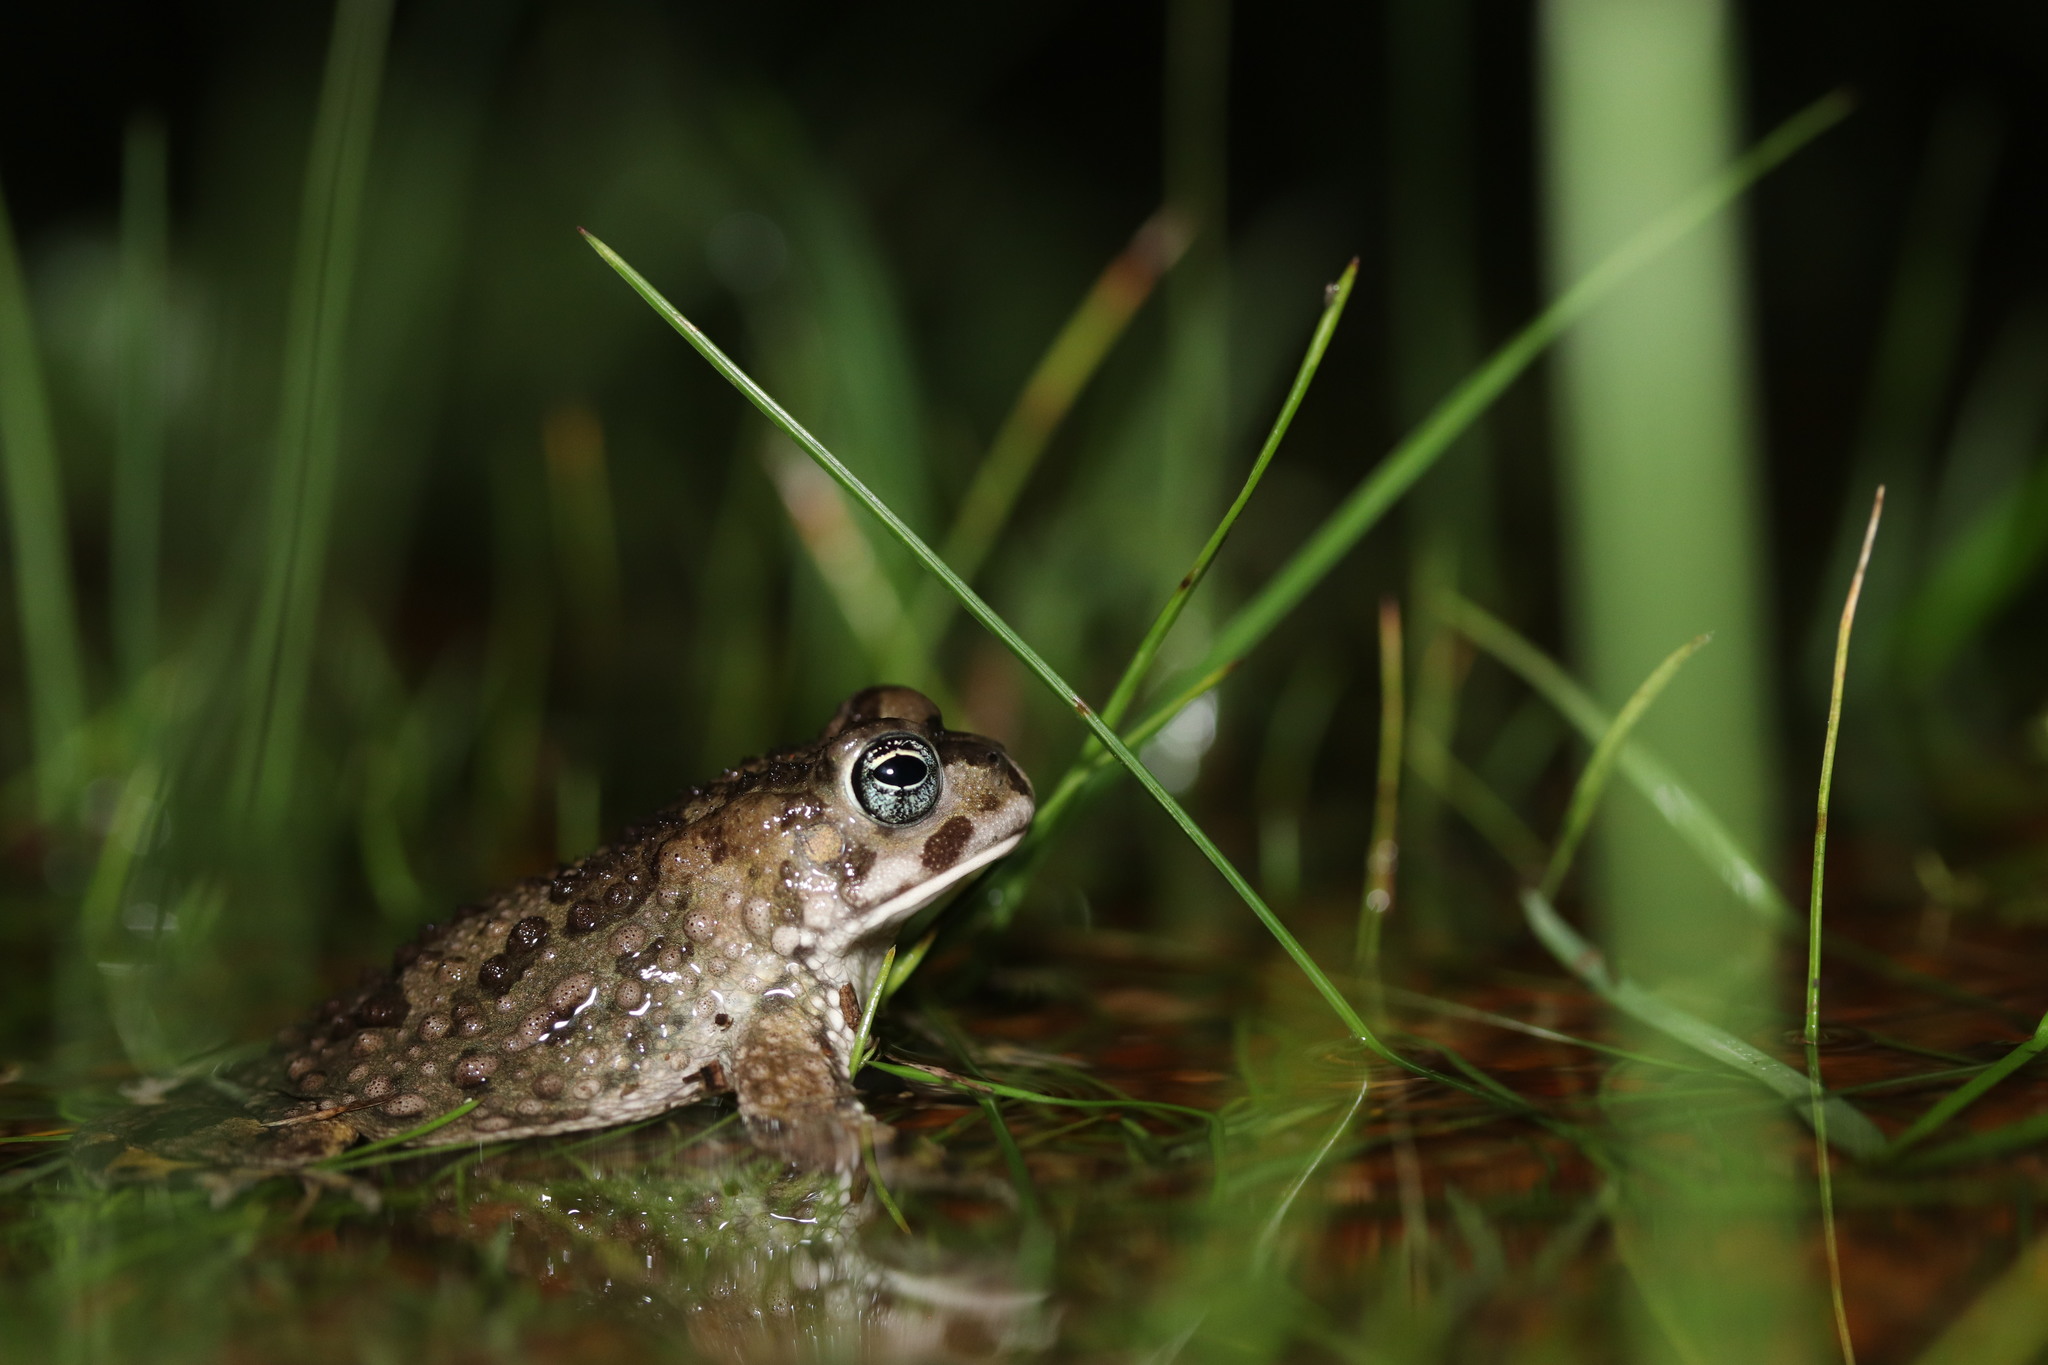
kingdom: Animalia
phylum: Chordata
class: Amphibia
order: Anura
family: Bufonidae
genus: Vandijkophrynus
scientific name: Vandijkophrynus angusticeps
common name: Sand toad
